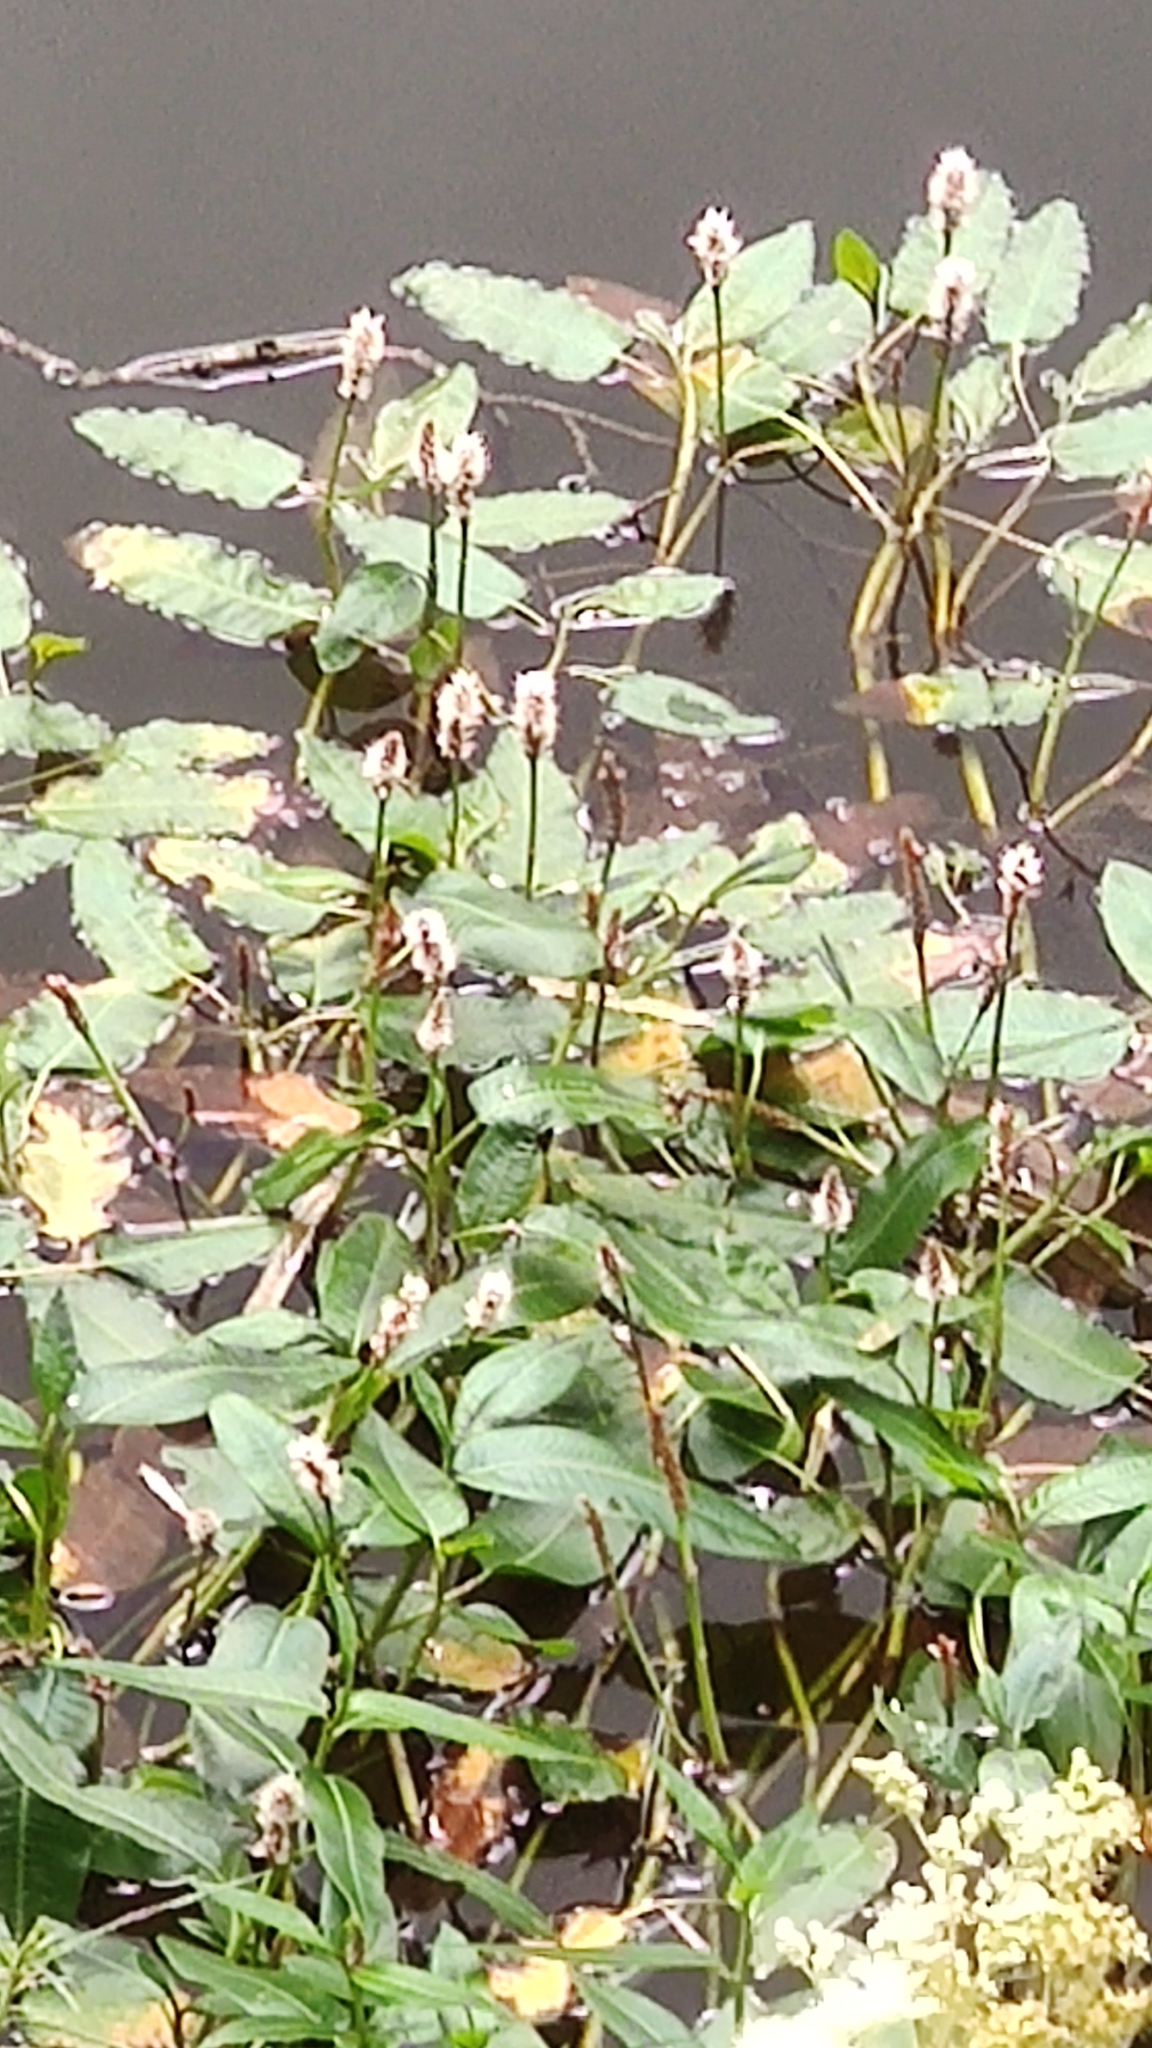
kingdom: Plantae
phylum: Tracheophyta
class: Magnoliopsida
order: Caryophyllales
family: Polygonaceae
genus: Persicaria
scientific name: Persicaria amphibia
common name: Amphibious bistort
